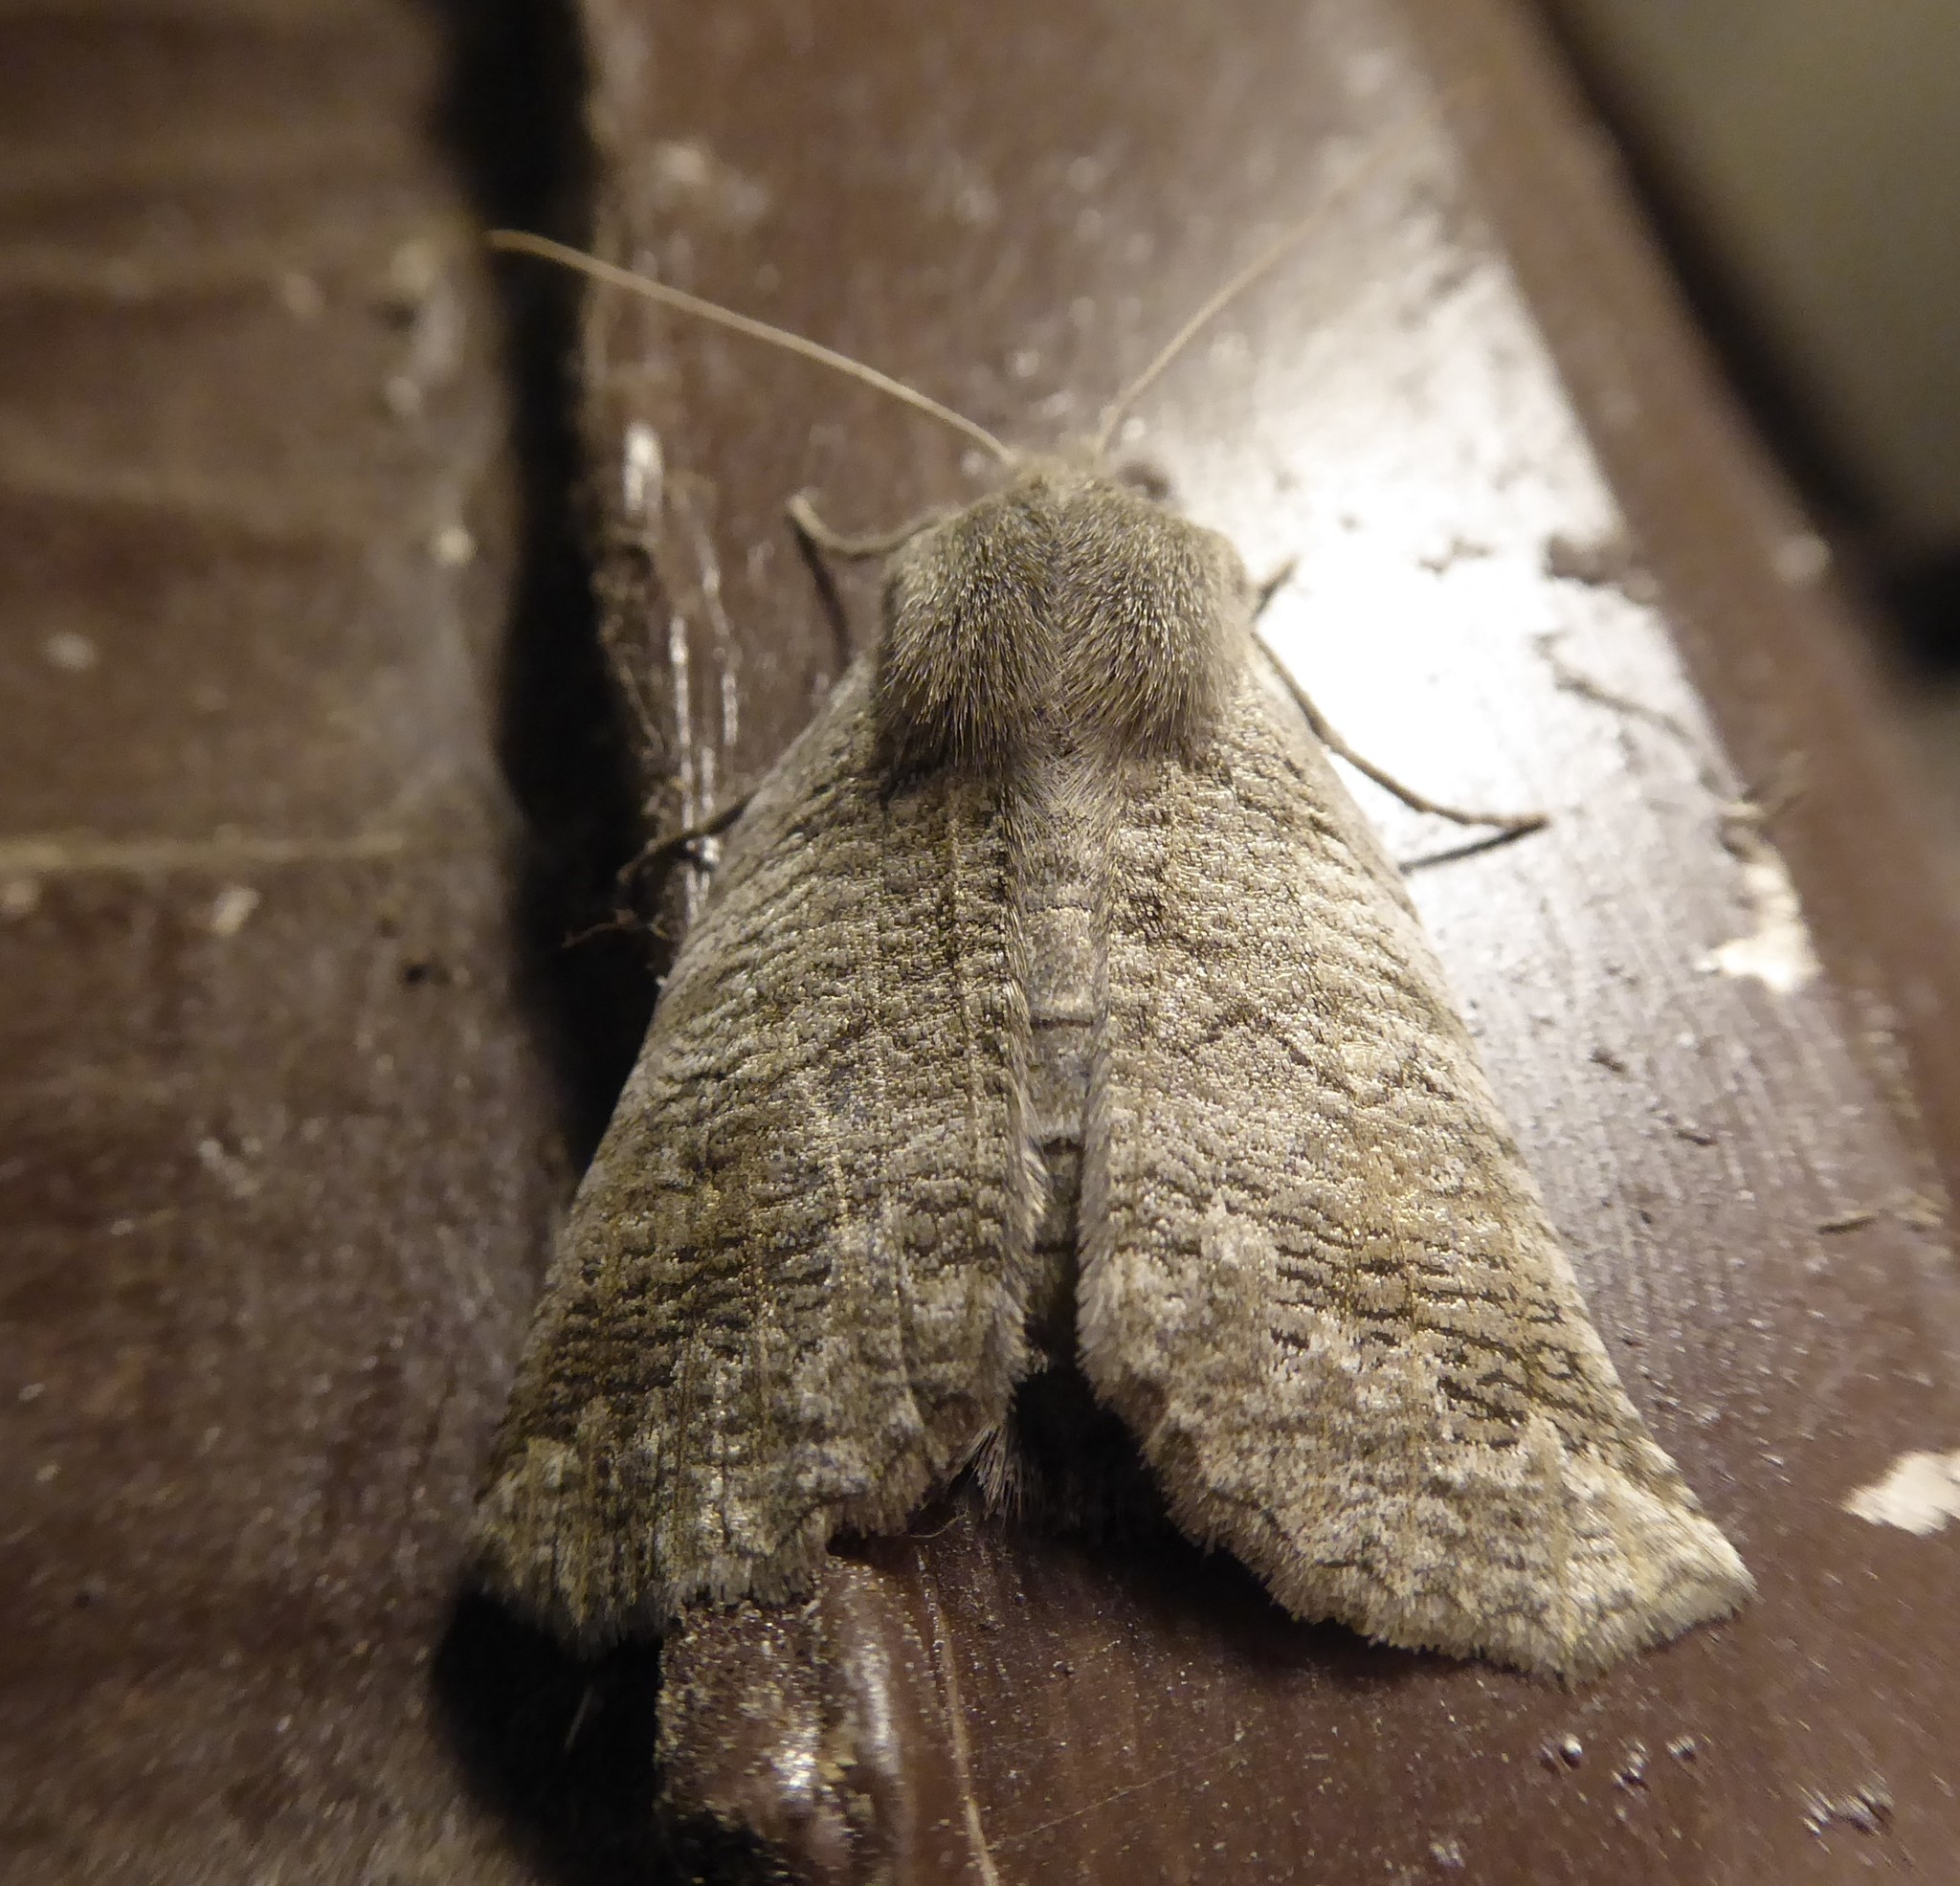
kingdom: Animalia
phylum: Arthropoda
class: Insecta
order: Lepidoptera
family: Geometridae
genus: Declana
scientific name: Declana
